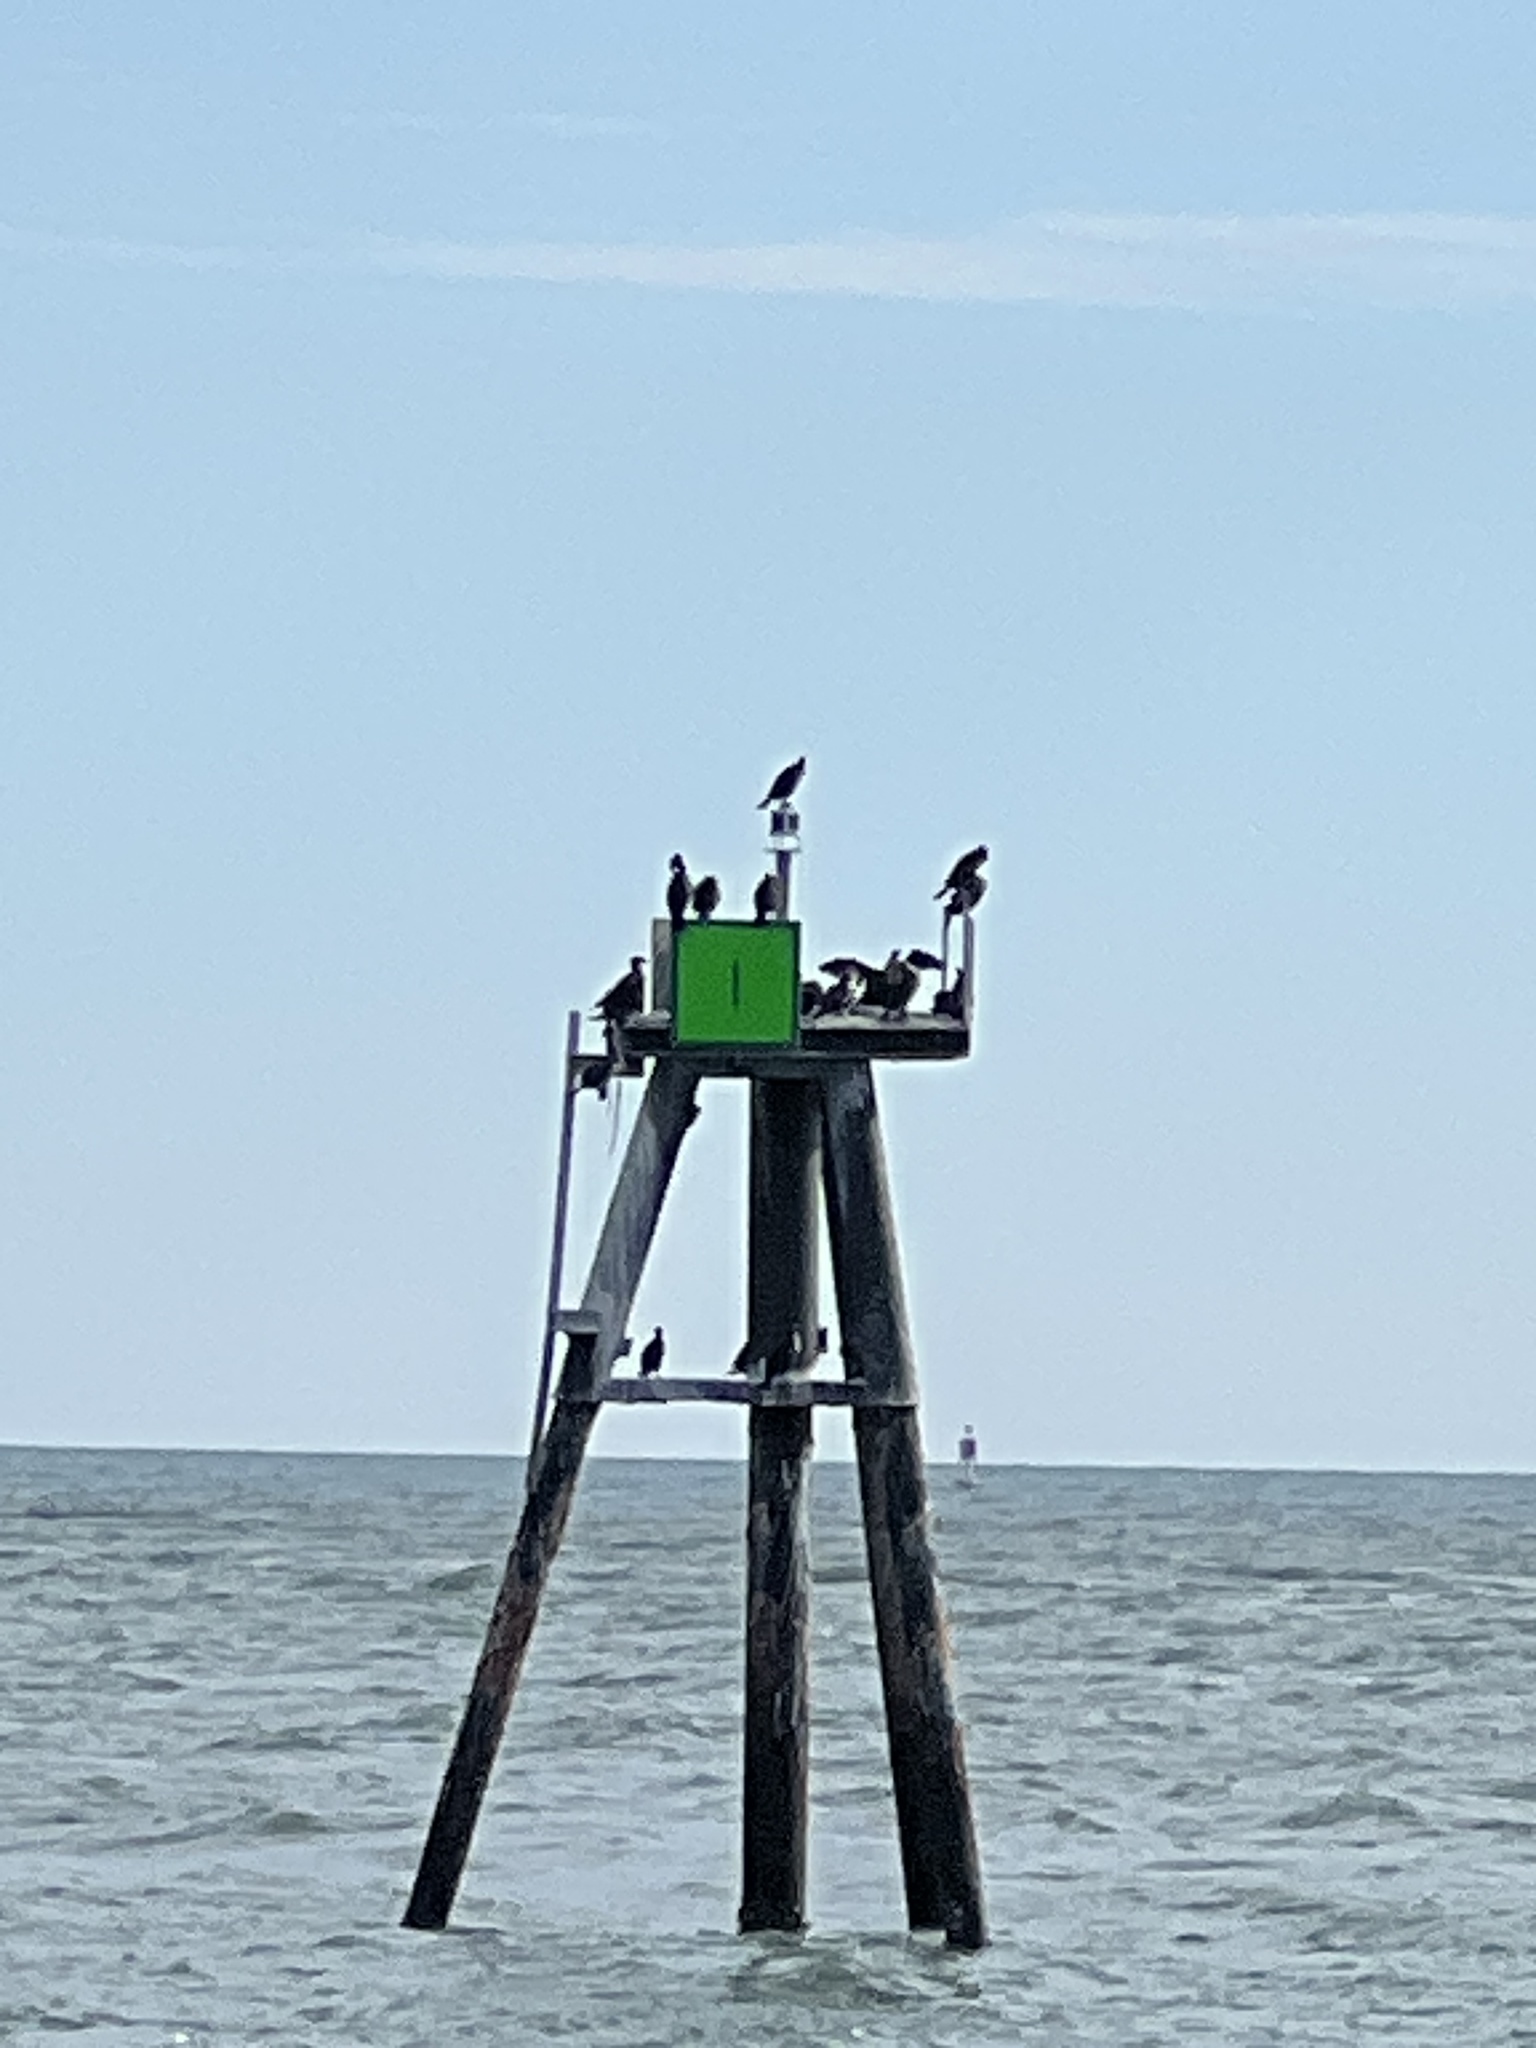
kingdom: Animalia
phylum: Chordata
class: Aves
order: Suliformes
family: Phalacrocoracidae
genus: Phalacrocorax
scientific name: Phalacrocorax auritus
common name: Double-crested cormorant
